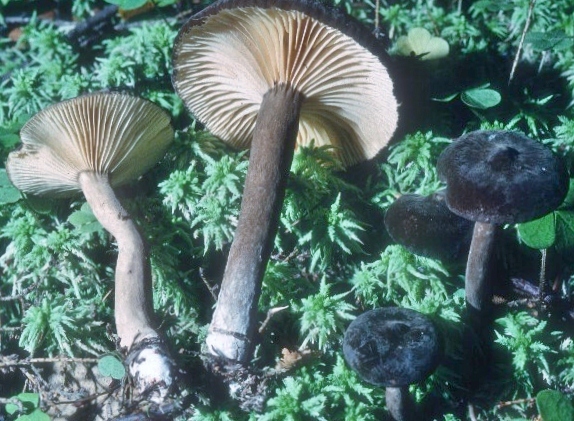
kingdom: Fungi
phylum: Basidiomycota
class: Agaricomycetes
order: Russulales
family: Russulaceae
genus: Lactarius
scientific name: Lactarius lignyotus
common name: Velvet milkcap
